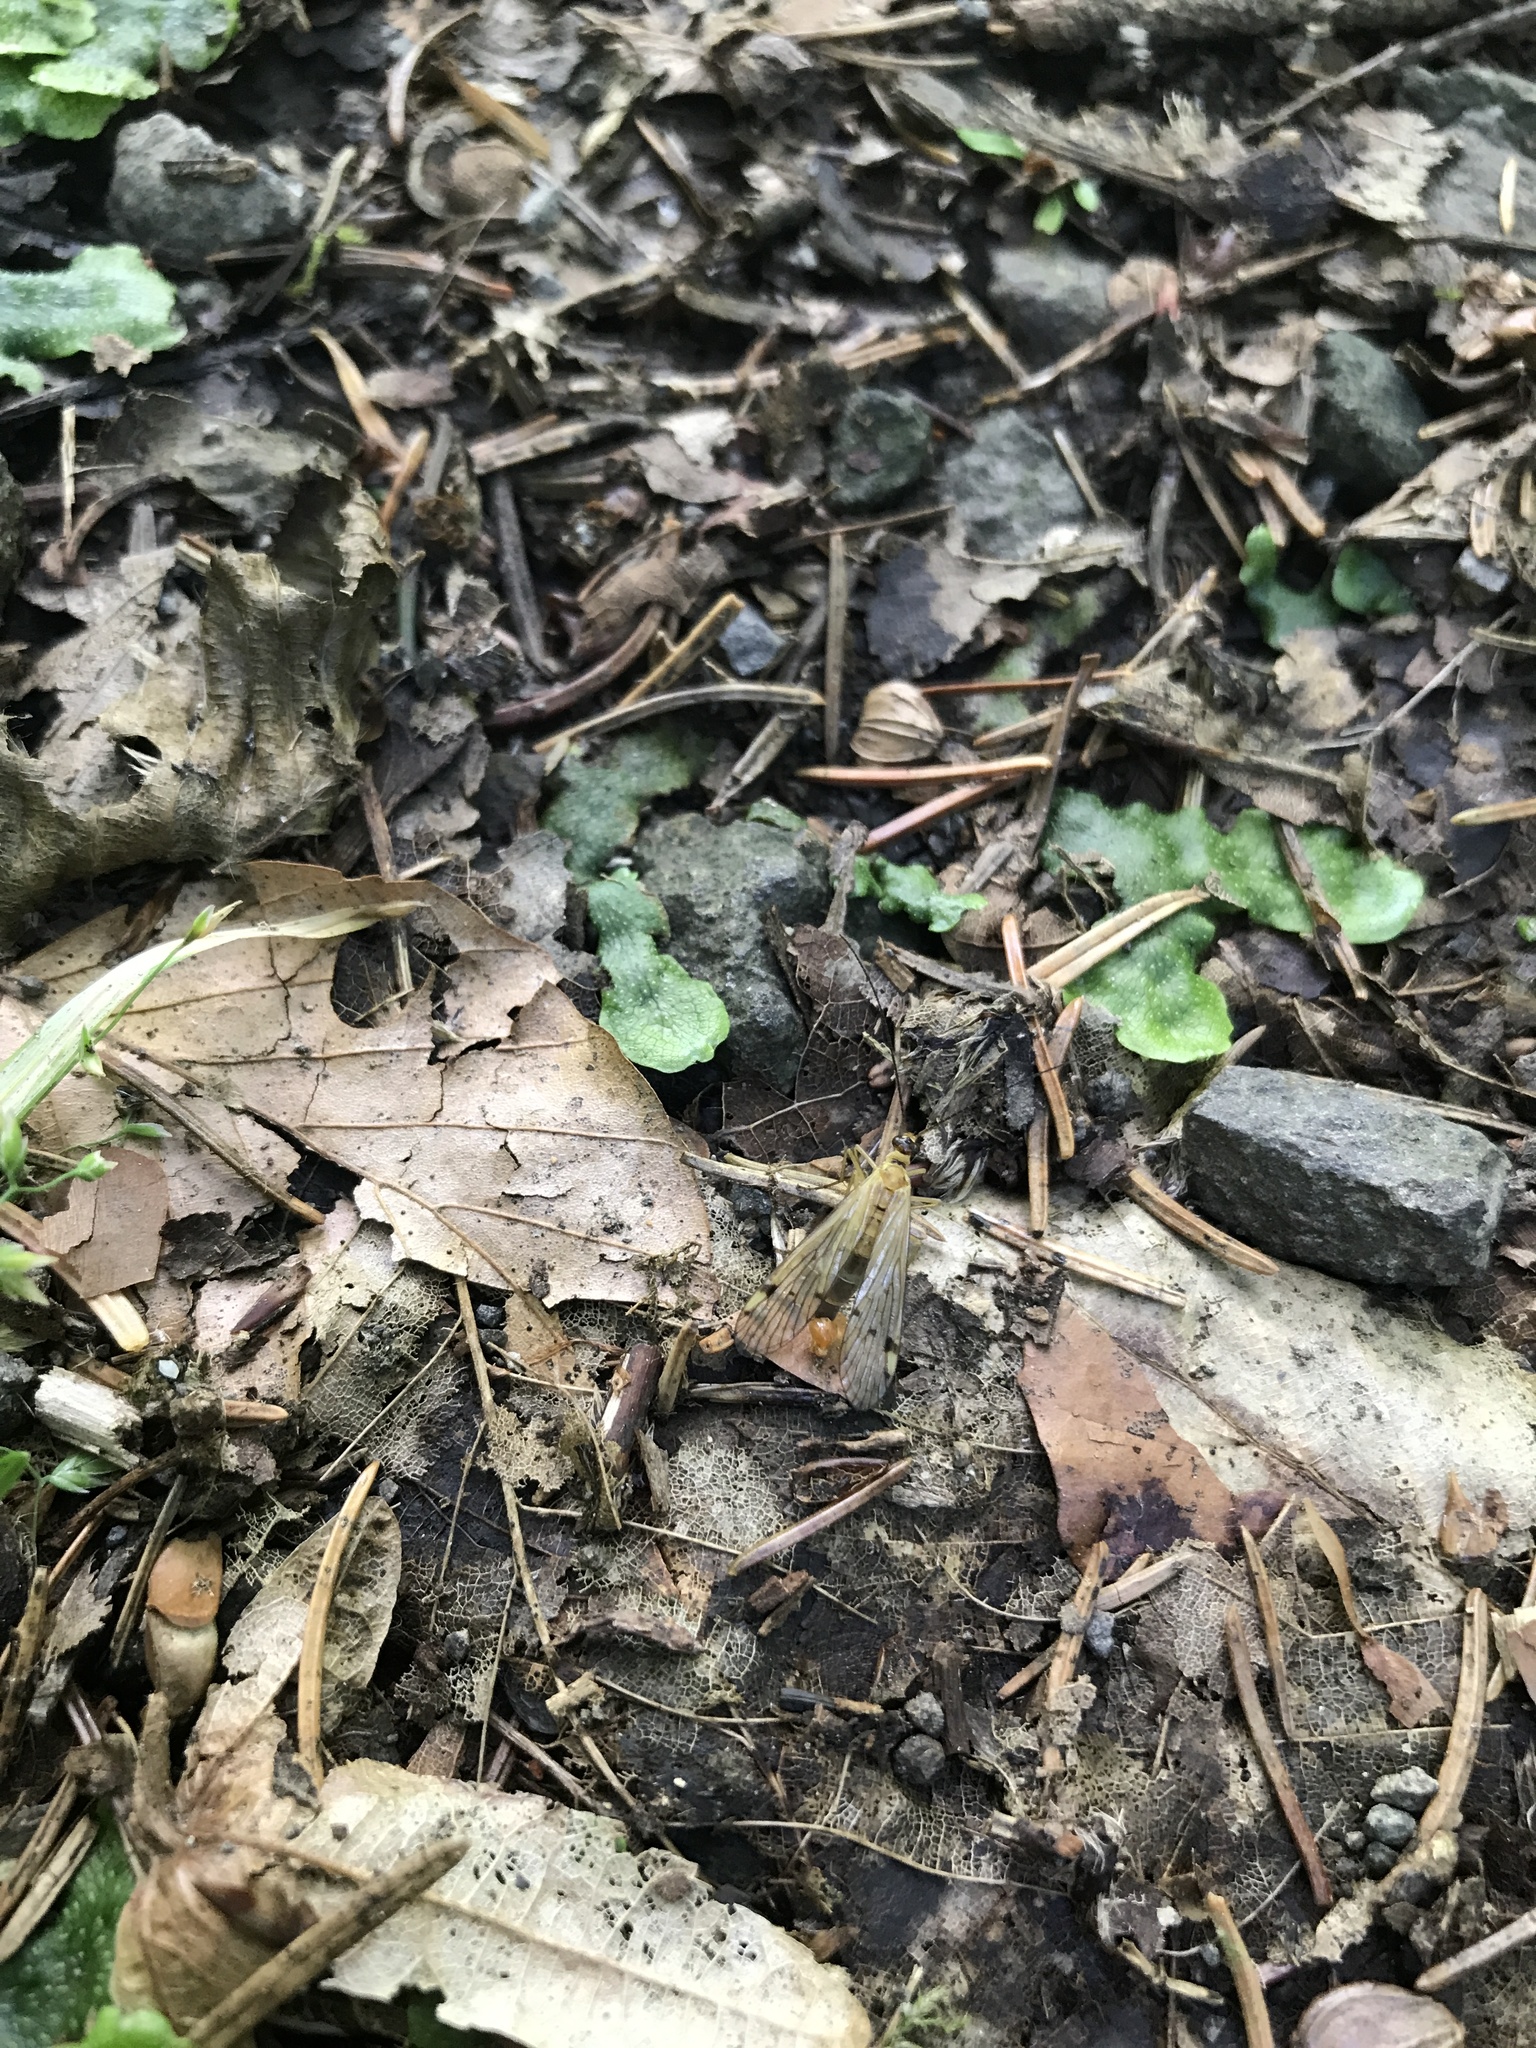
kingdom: Animalia
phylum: Arthropoda
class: Insecta
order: Mecoptera
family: Panorpidae
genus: Panorpa
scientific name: Panorpa alpina
